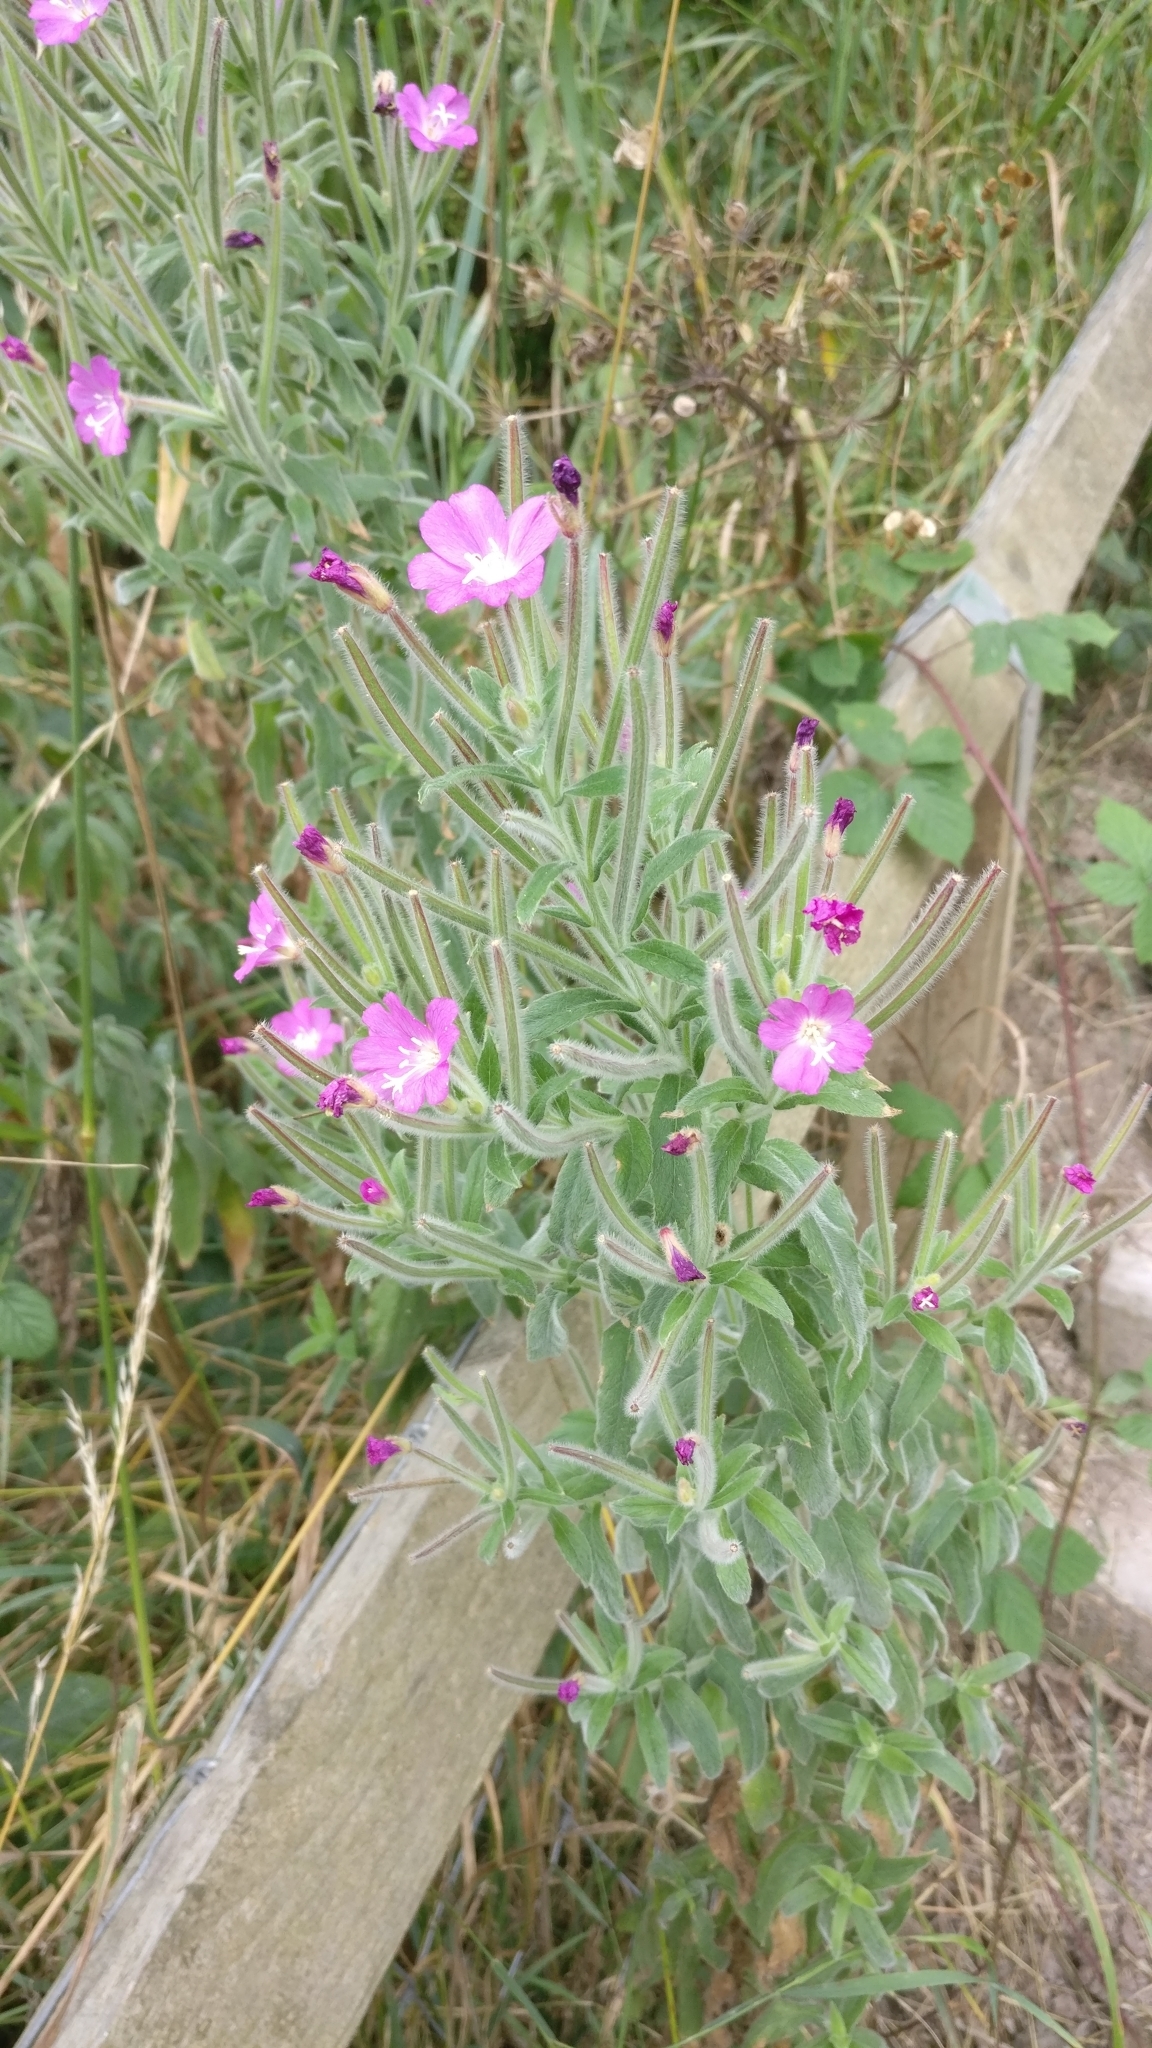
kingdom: Plantae
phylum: Tracheophyta
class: Magnoliopsida
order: Myrtales
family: Onagraceae
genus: Epilobium
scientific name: Epilobium hirsutum
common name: Great willowherb
